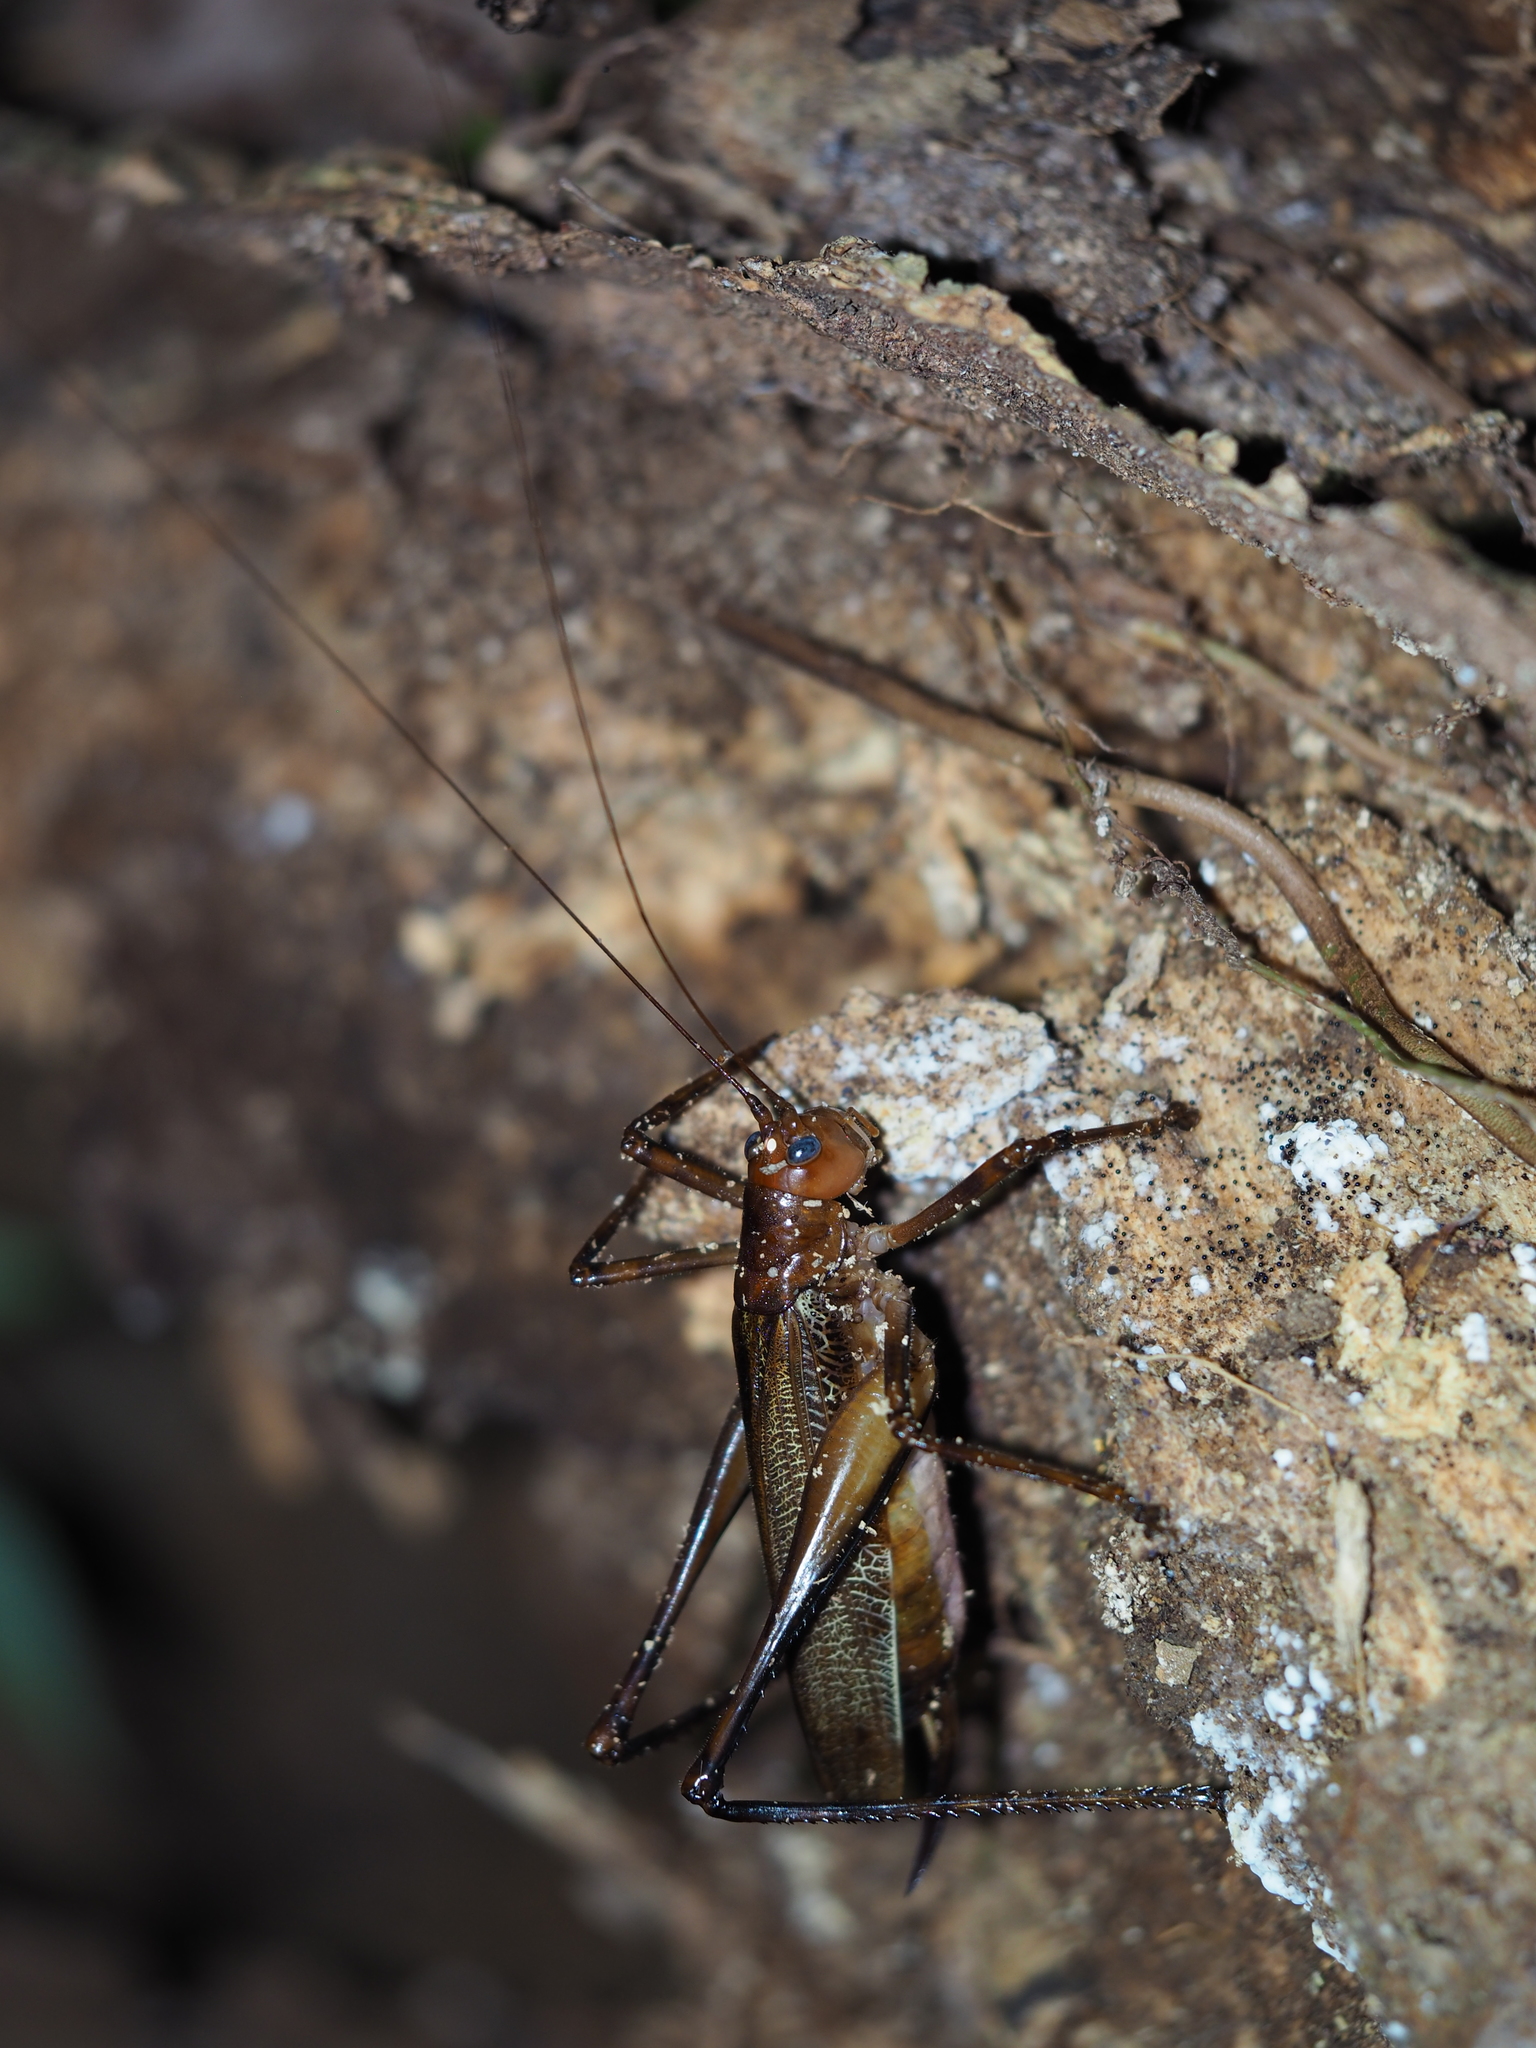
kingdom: Animalia
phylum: Arthropoda
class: Insecta
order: Orthoptera
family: Tettigoniidae
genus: Ischnomela
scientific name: Ischnomela pulchripennis
